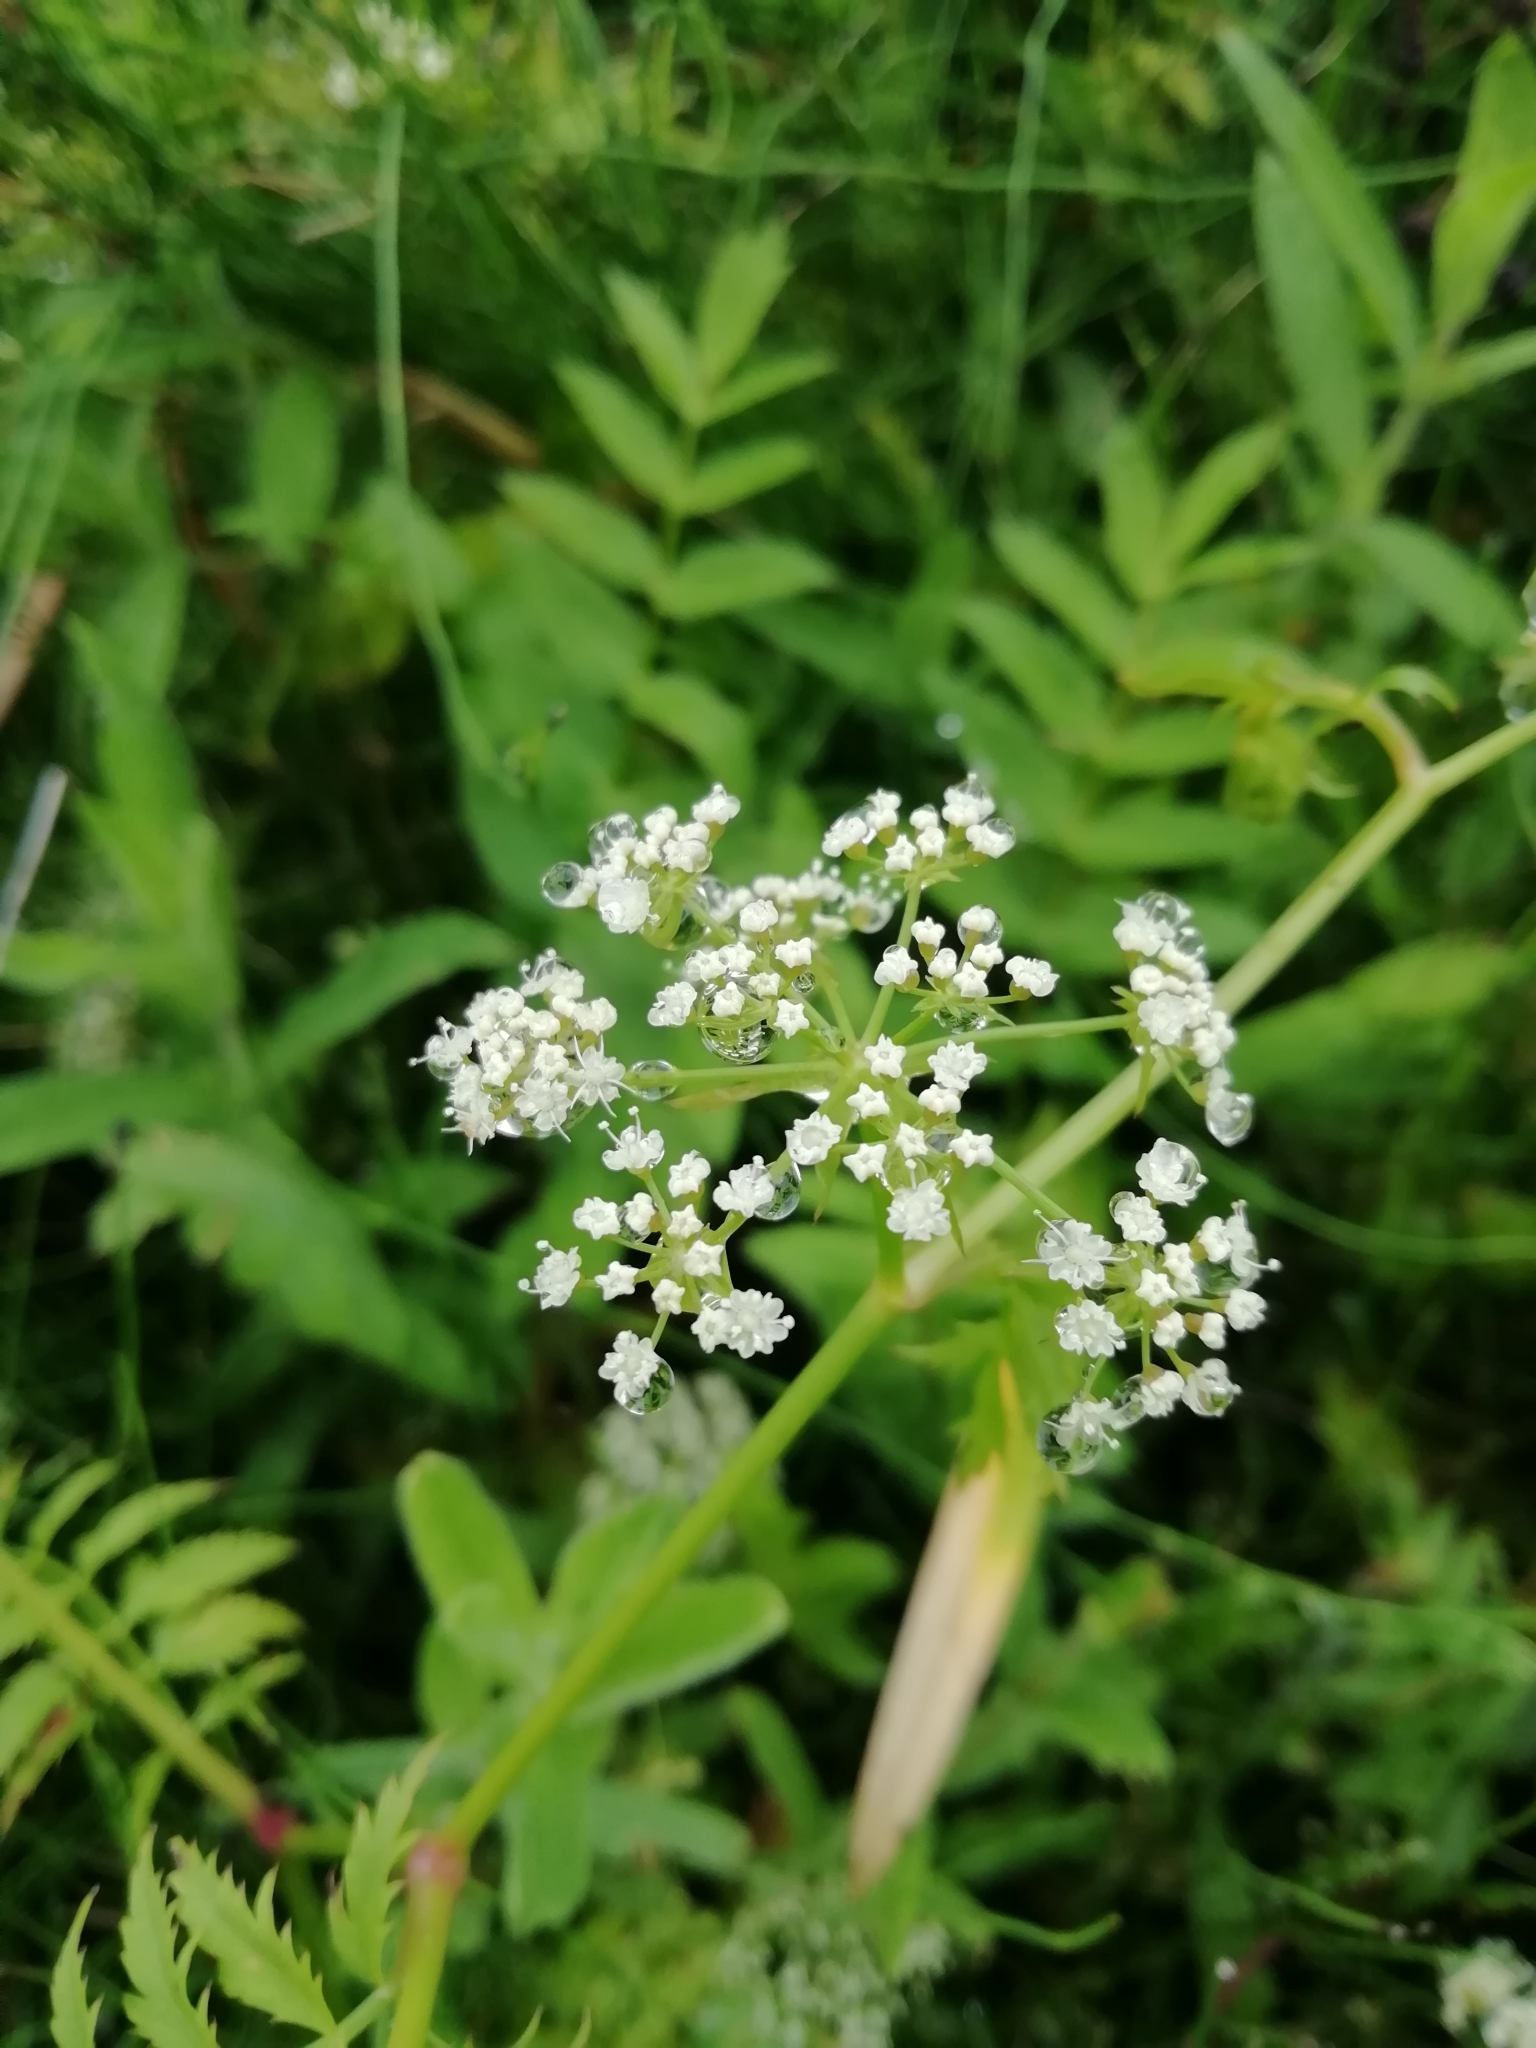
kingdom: Plantae
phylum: Tracheophyta
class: Magnoliopsida
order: Apiales
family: Apiaceae
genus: Sium
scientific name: Sium latifolium
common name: Greater water-parsnip
